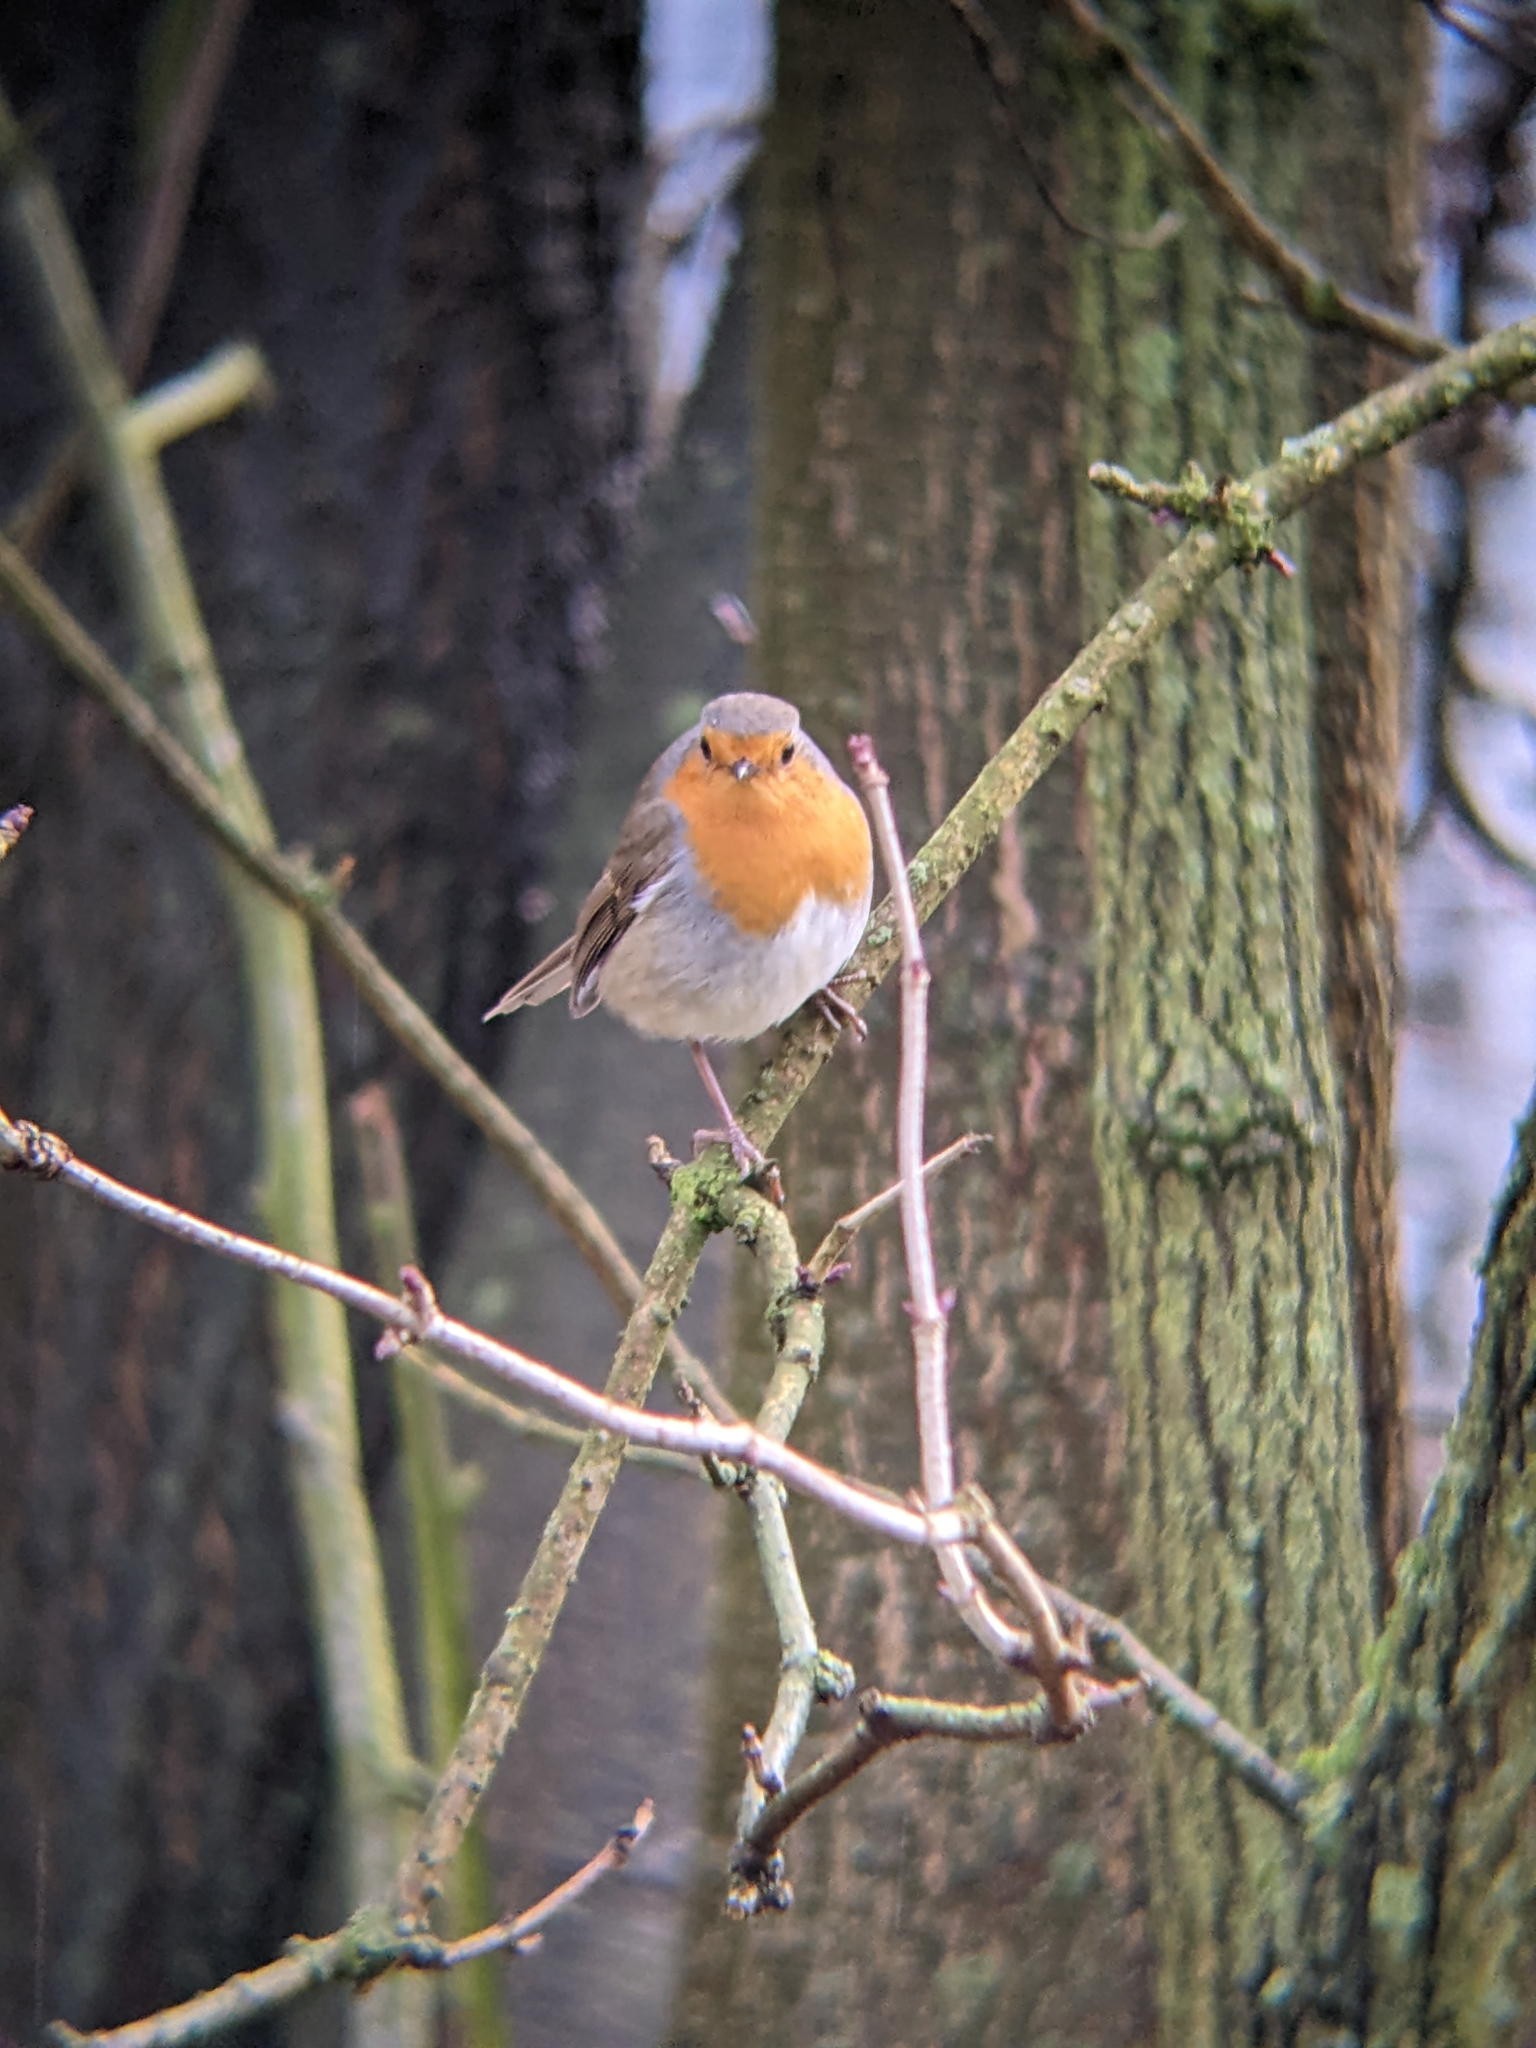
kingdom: Animalia
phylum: Chordata
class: Aves
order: Passeriformes
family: Muscicapidae
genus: Erithacus
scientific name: Erithacus rubecula
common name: European robin
